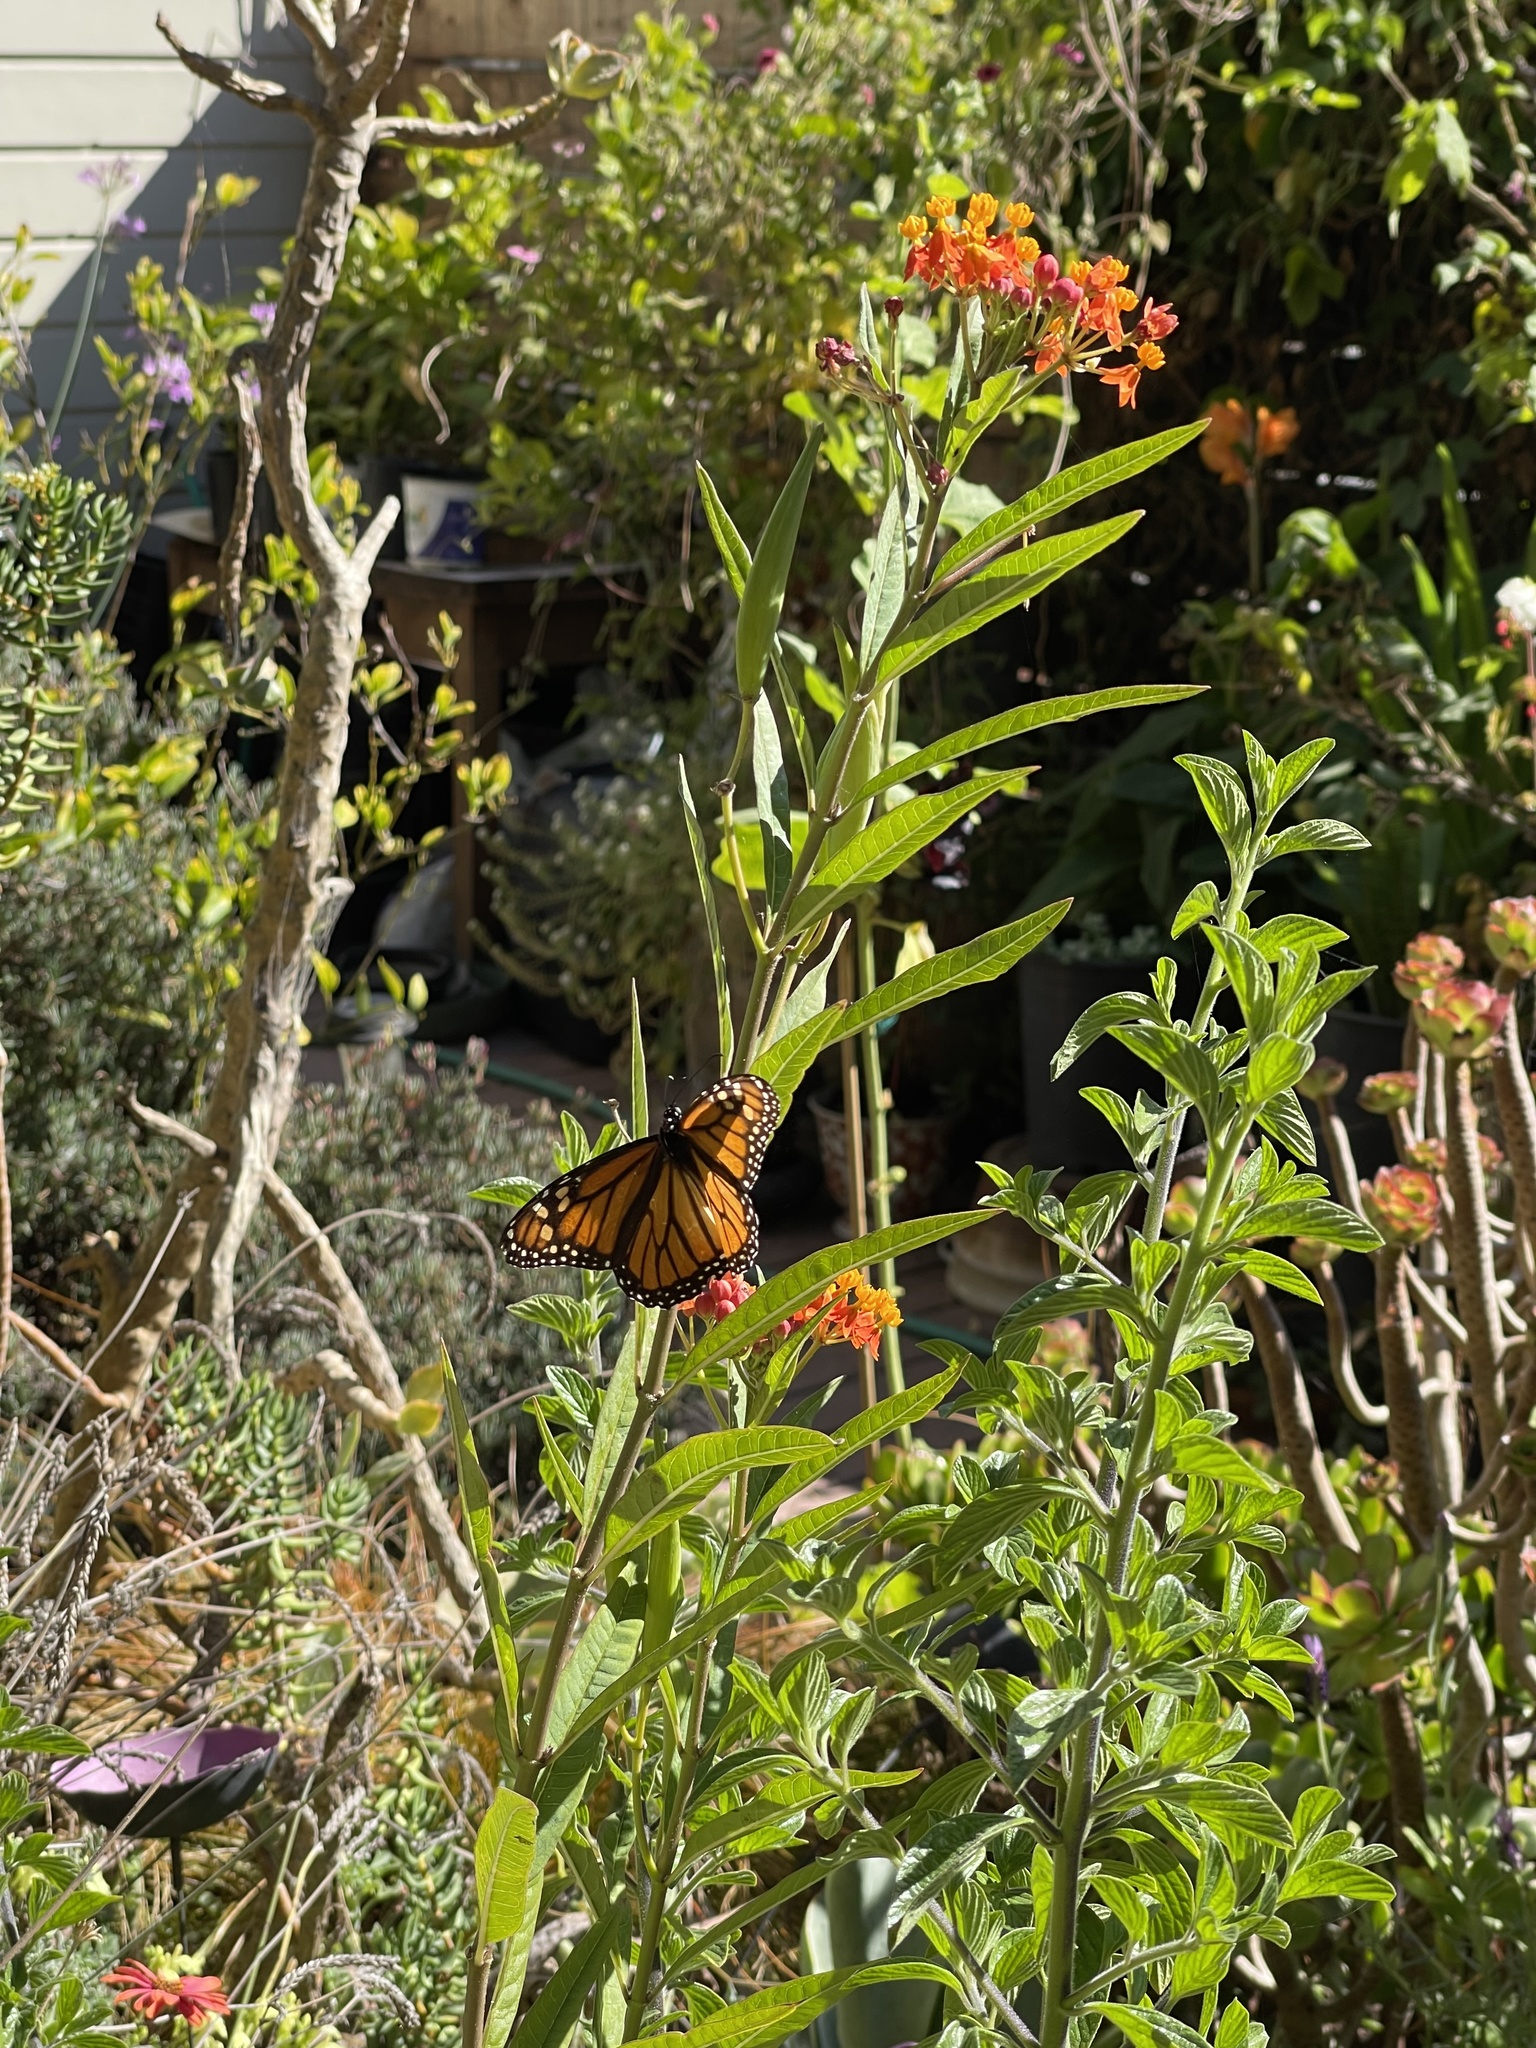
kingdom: Animalia
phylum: Arthropoda
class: Insecta
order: Lepidoptera
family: Nymphalidae
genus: Danaus
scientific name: Danaus plexippus
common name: Monarch
